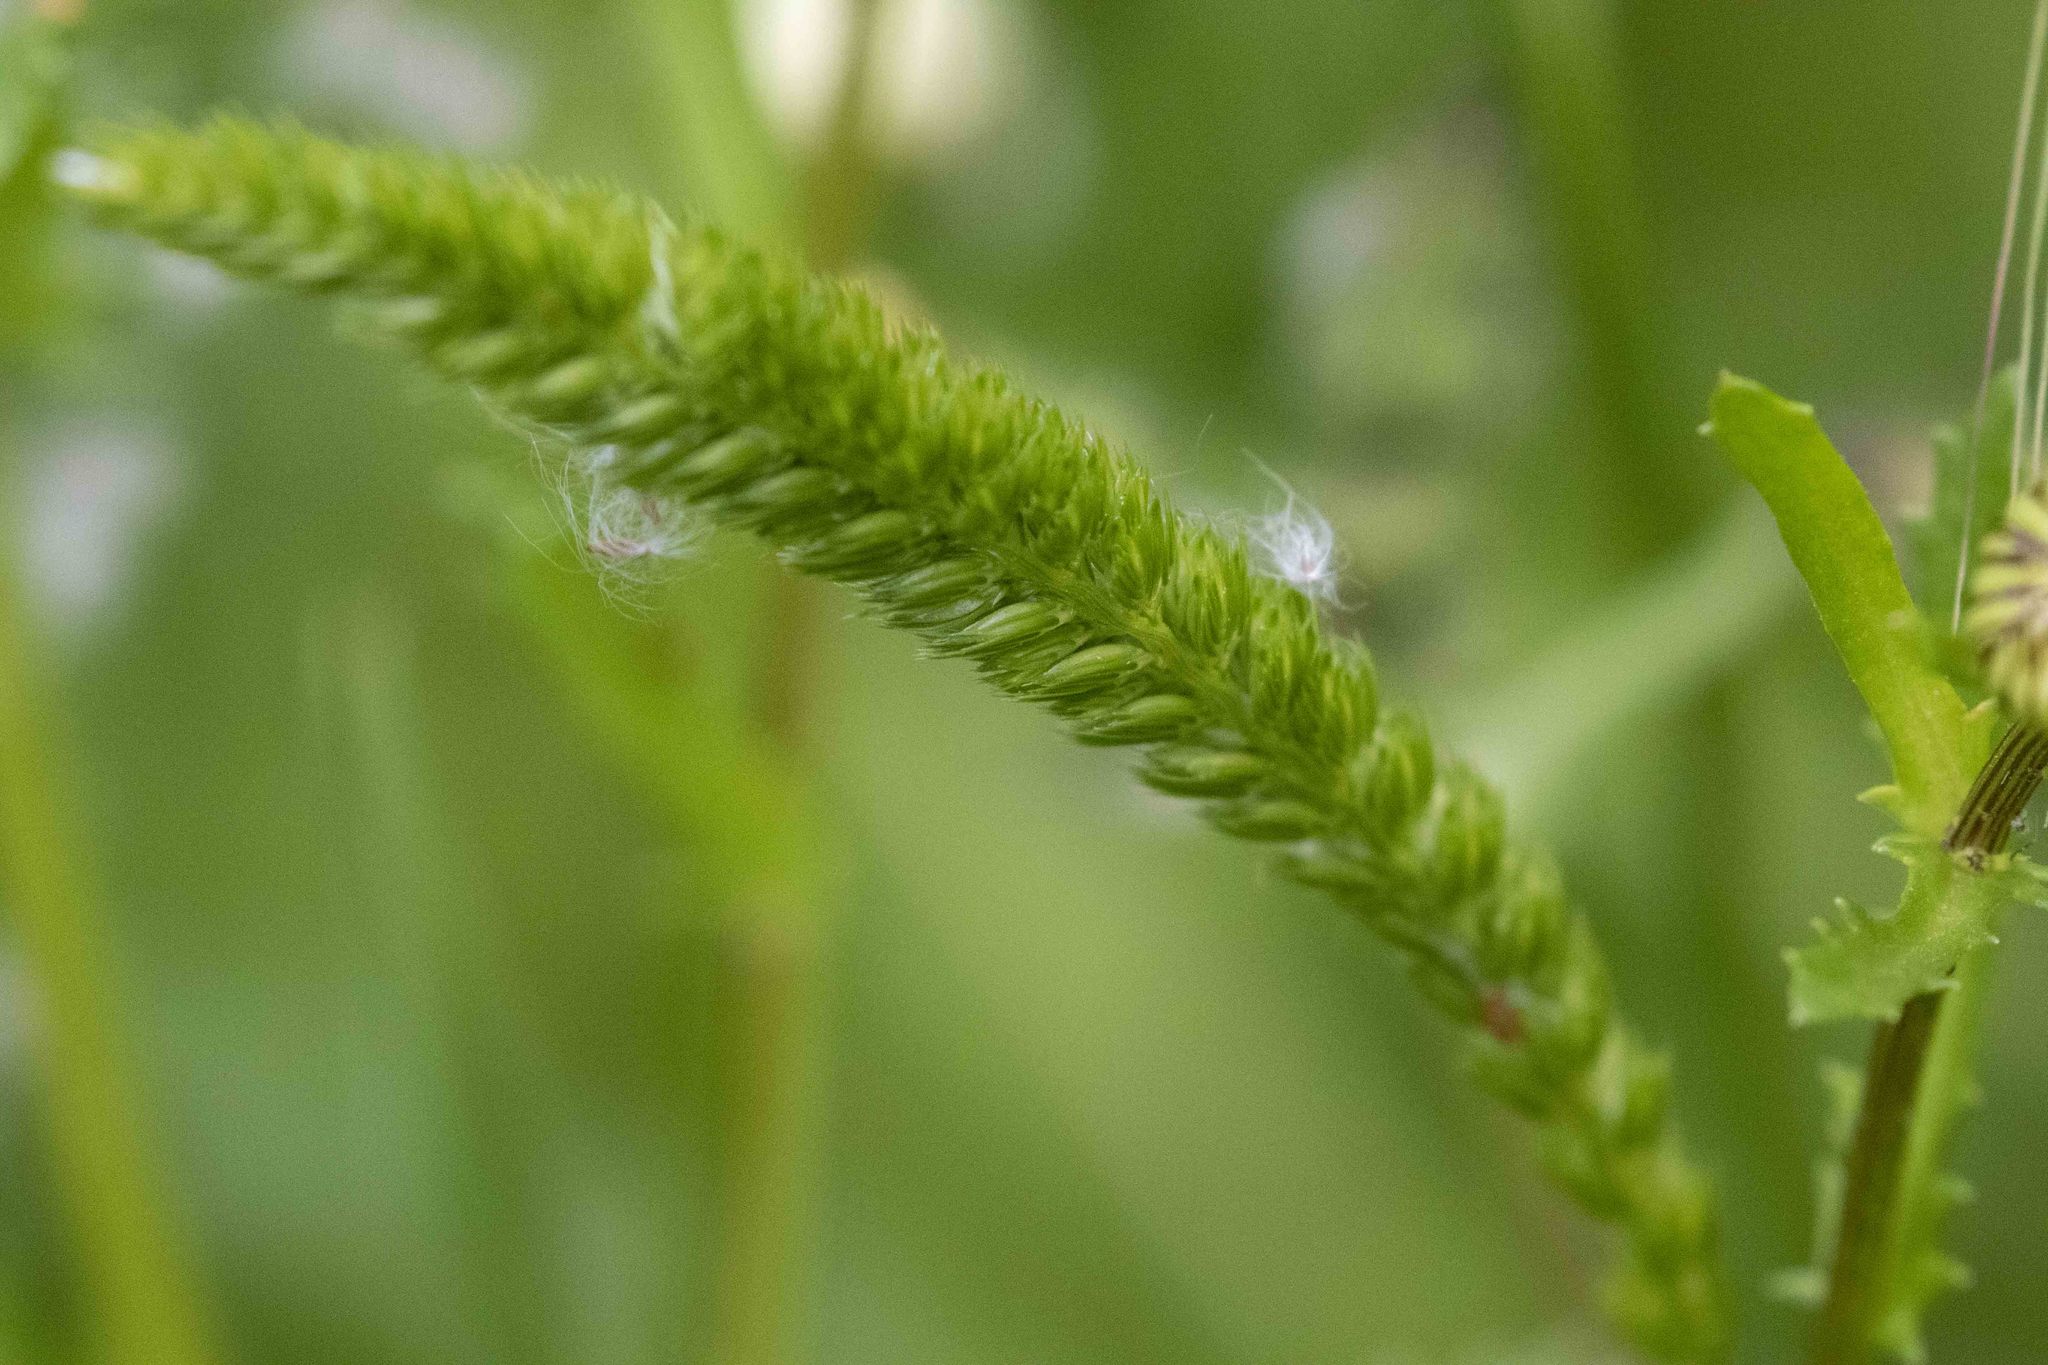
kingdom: Plantae
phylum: Tracheophyta
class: Liliopsida
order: Poales
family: Poaceae
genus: Cynosurus
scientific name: Cynosurus cristatus
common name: Crested dog's-tail
